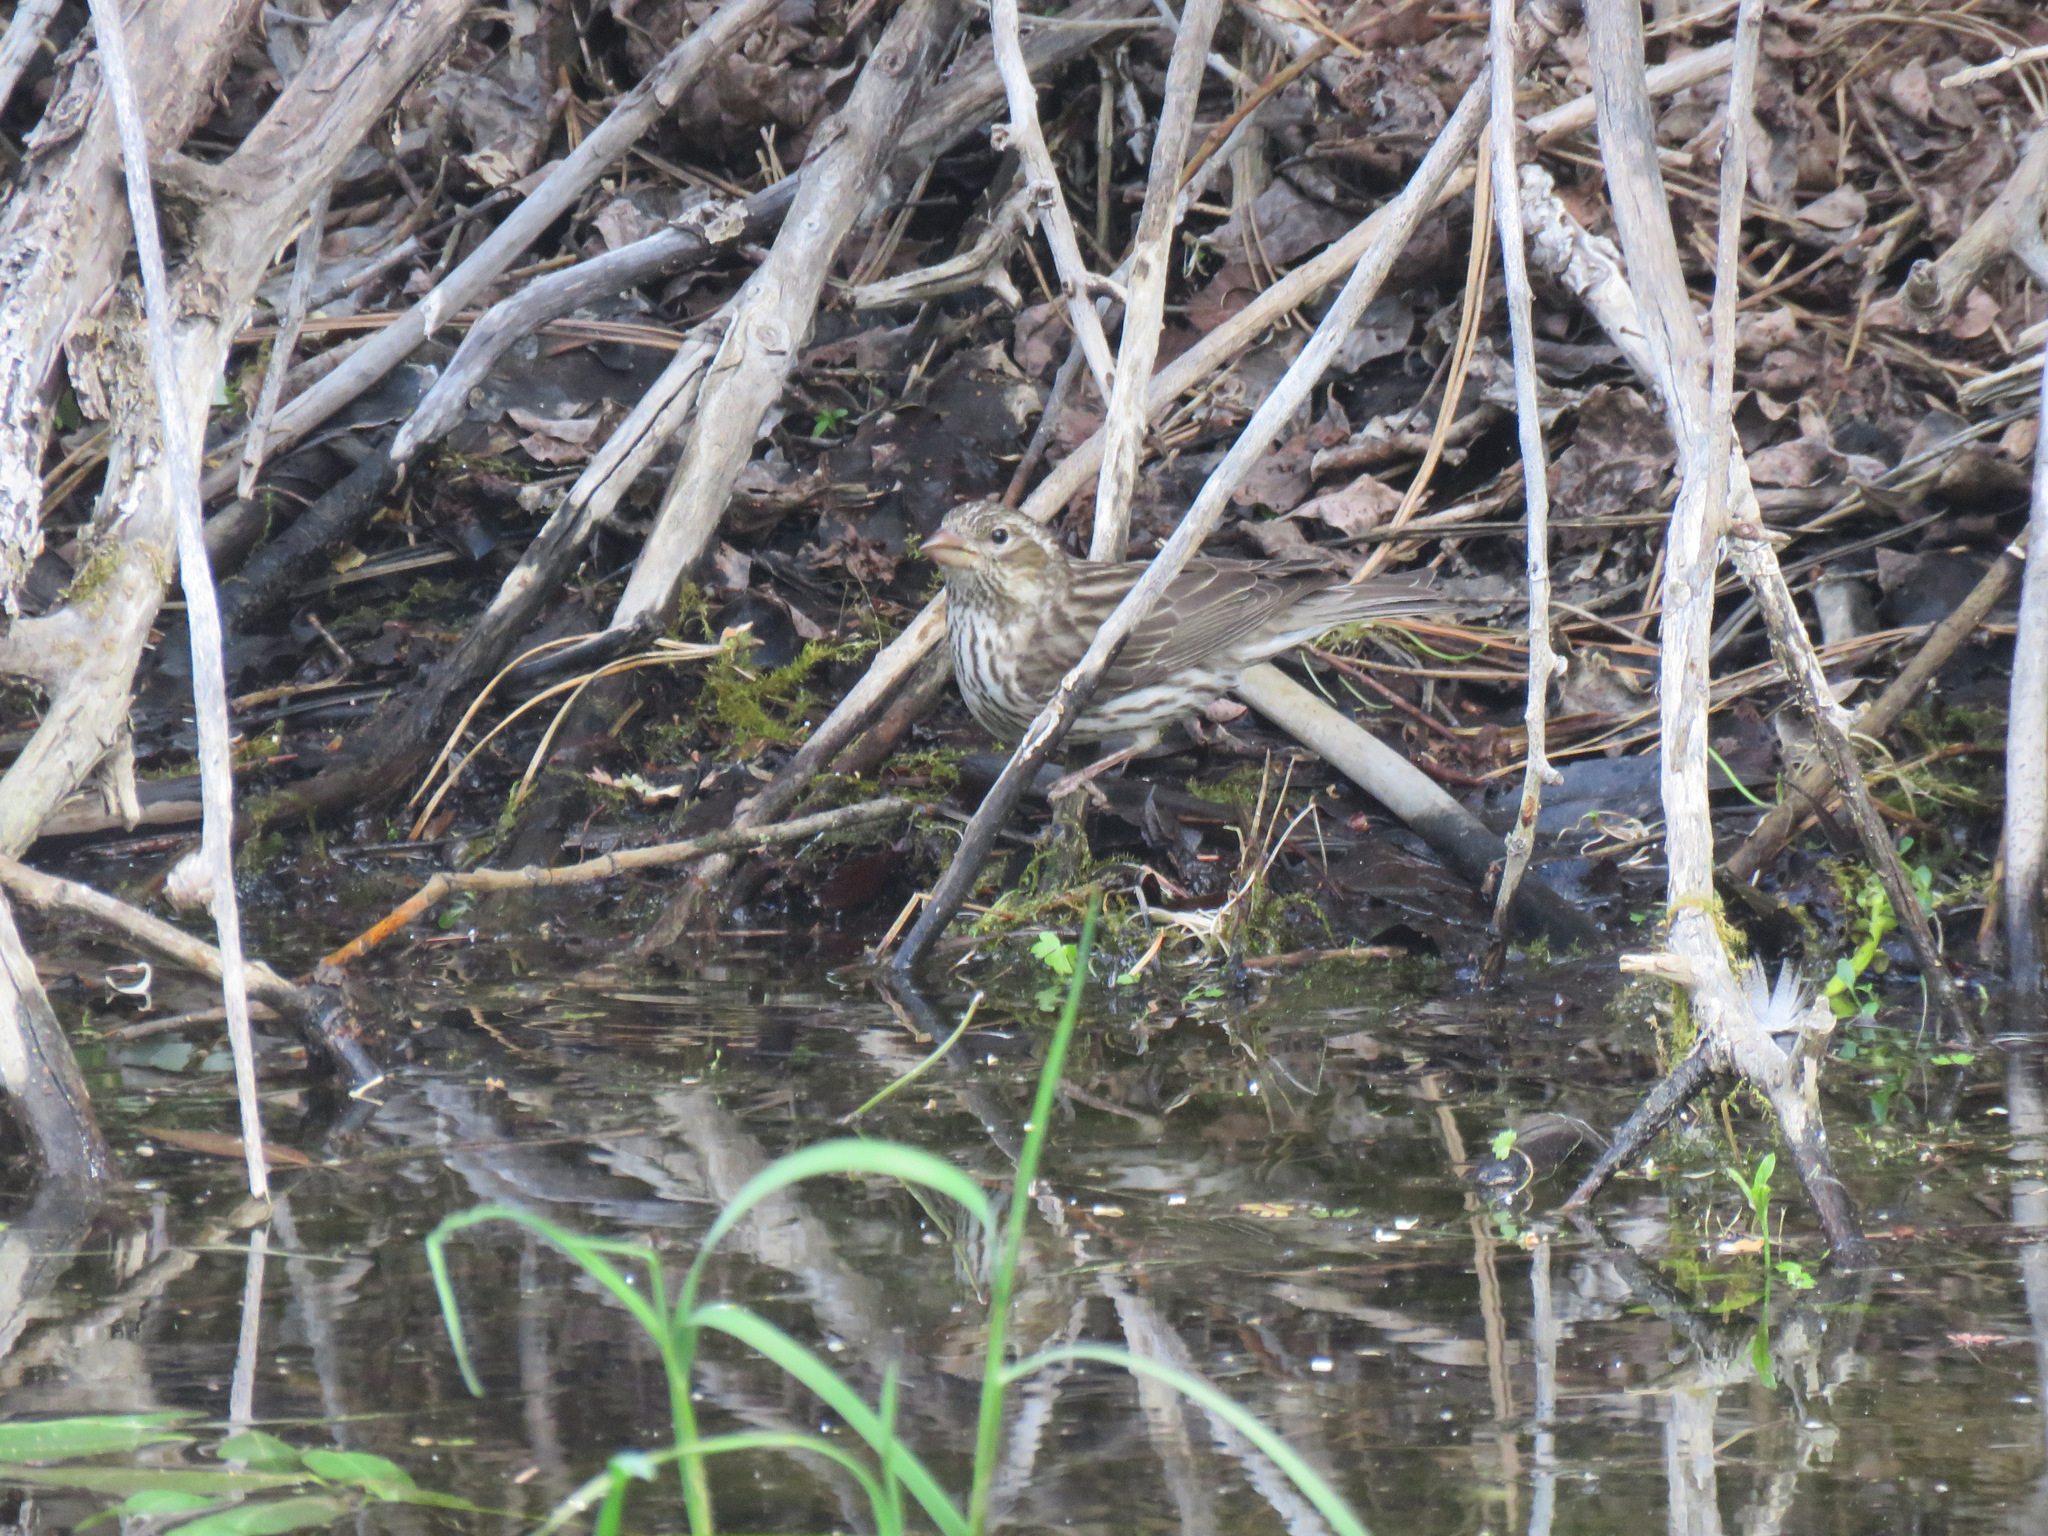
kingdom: Animalia
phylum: Chordata
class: Aves
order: Passeriformes
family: Fringillidae
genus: Haemorhous
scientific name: Haemorhous cassinii
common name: Cassin's finch
